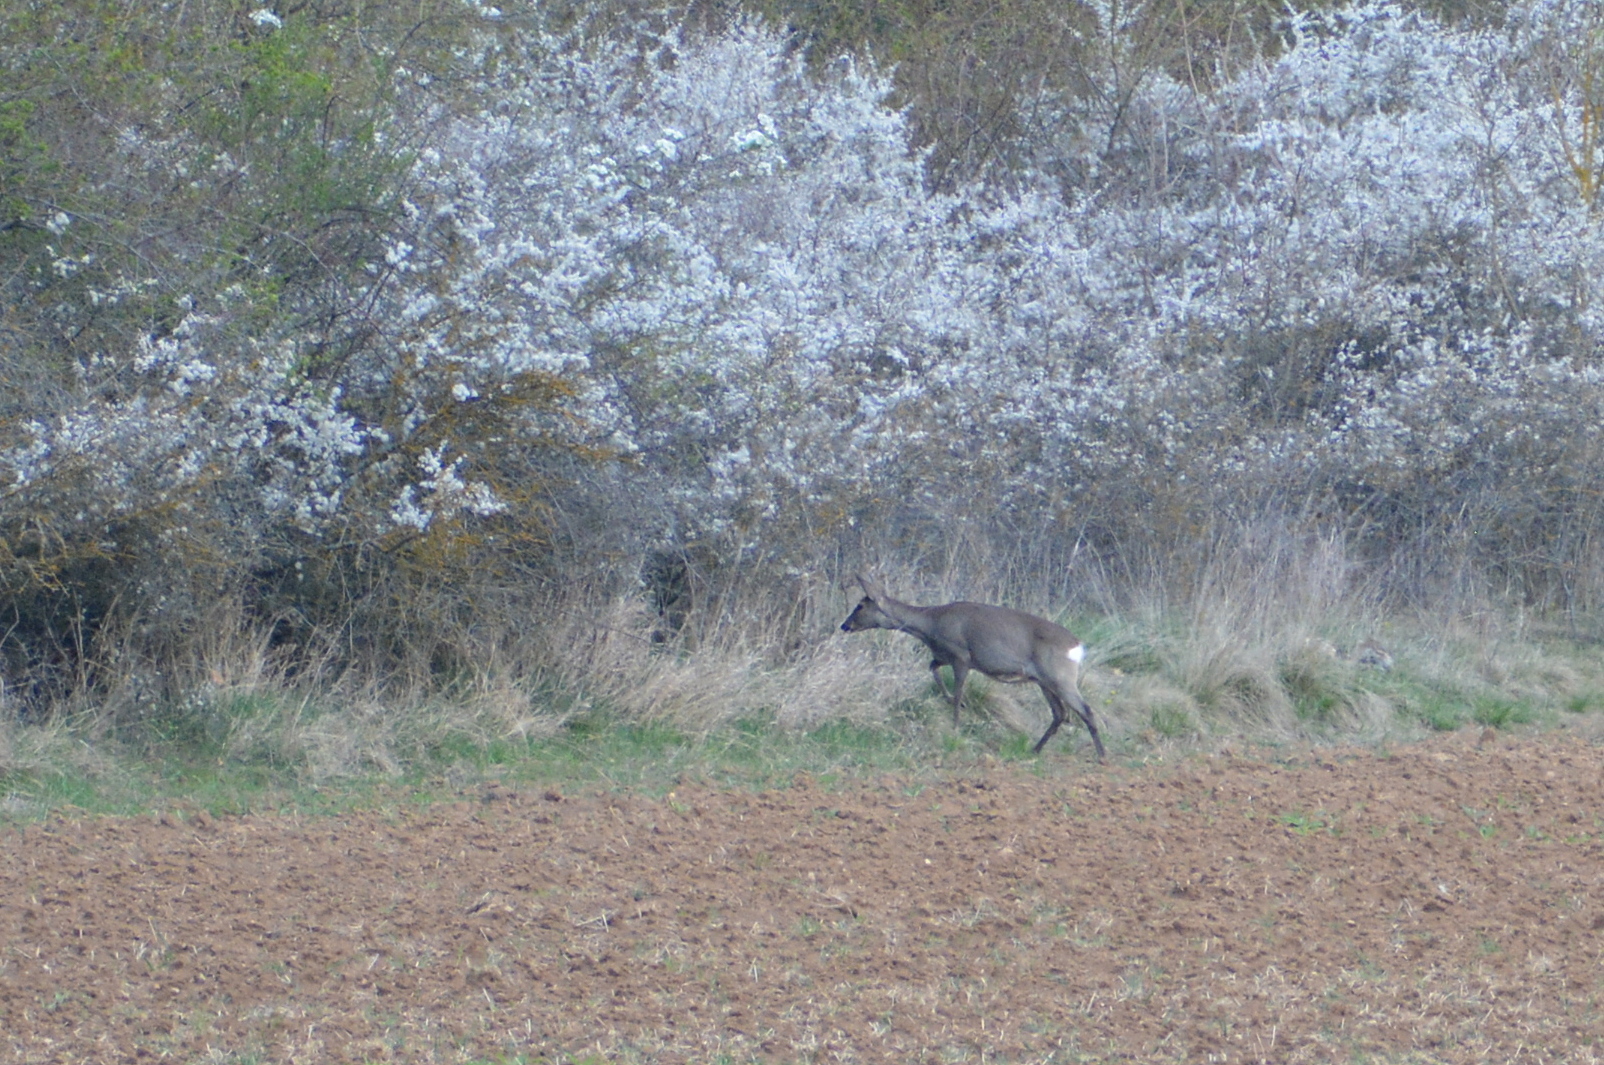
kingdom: Animalia
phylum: Chordata
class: Mammalia
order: Artiodactyla
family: Cervidae
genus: Capreolus
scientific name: Capreolus capreolus
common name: Western roe deer
